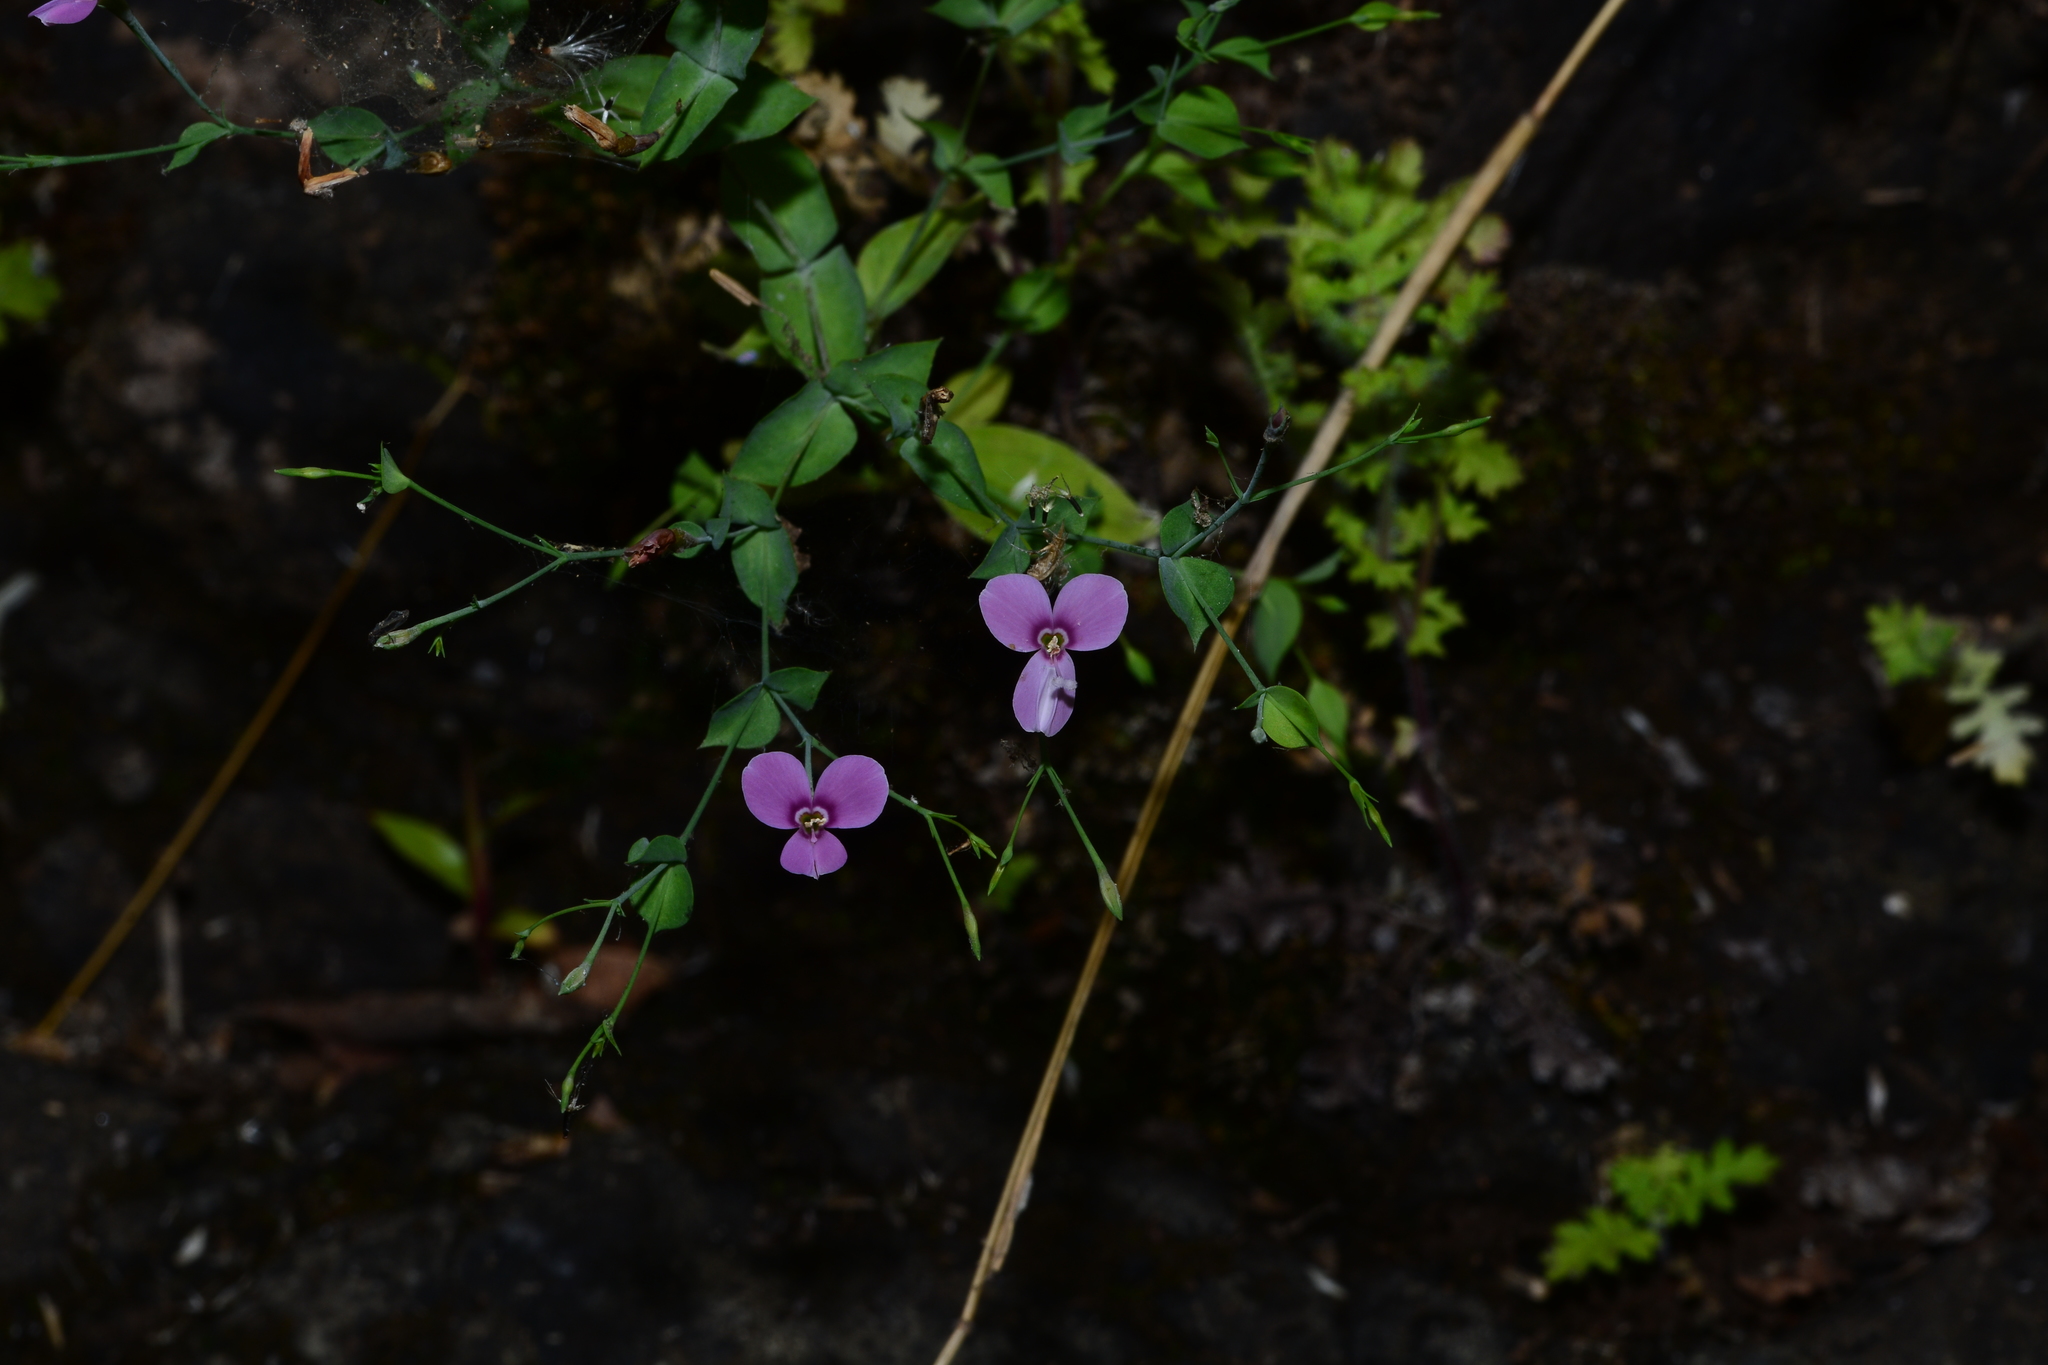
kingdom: Plantae
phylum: Tracheophyta
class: Magnoliopsida
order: Gentianales
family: Gentianaceae
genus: Canscora
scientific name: Canscora diffusa
